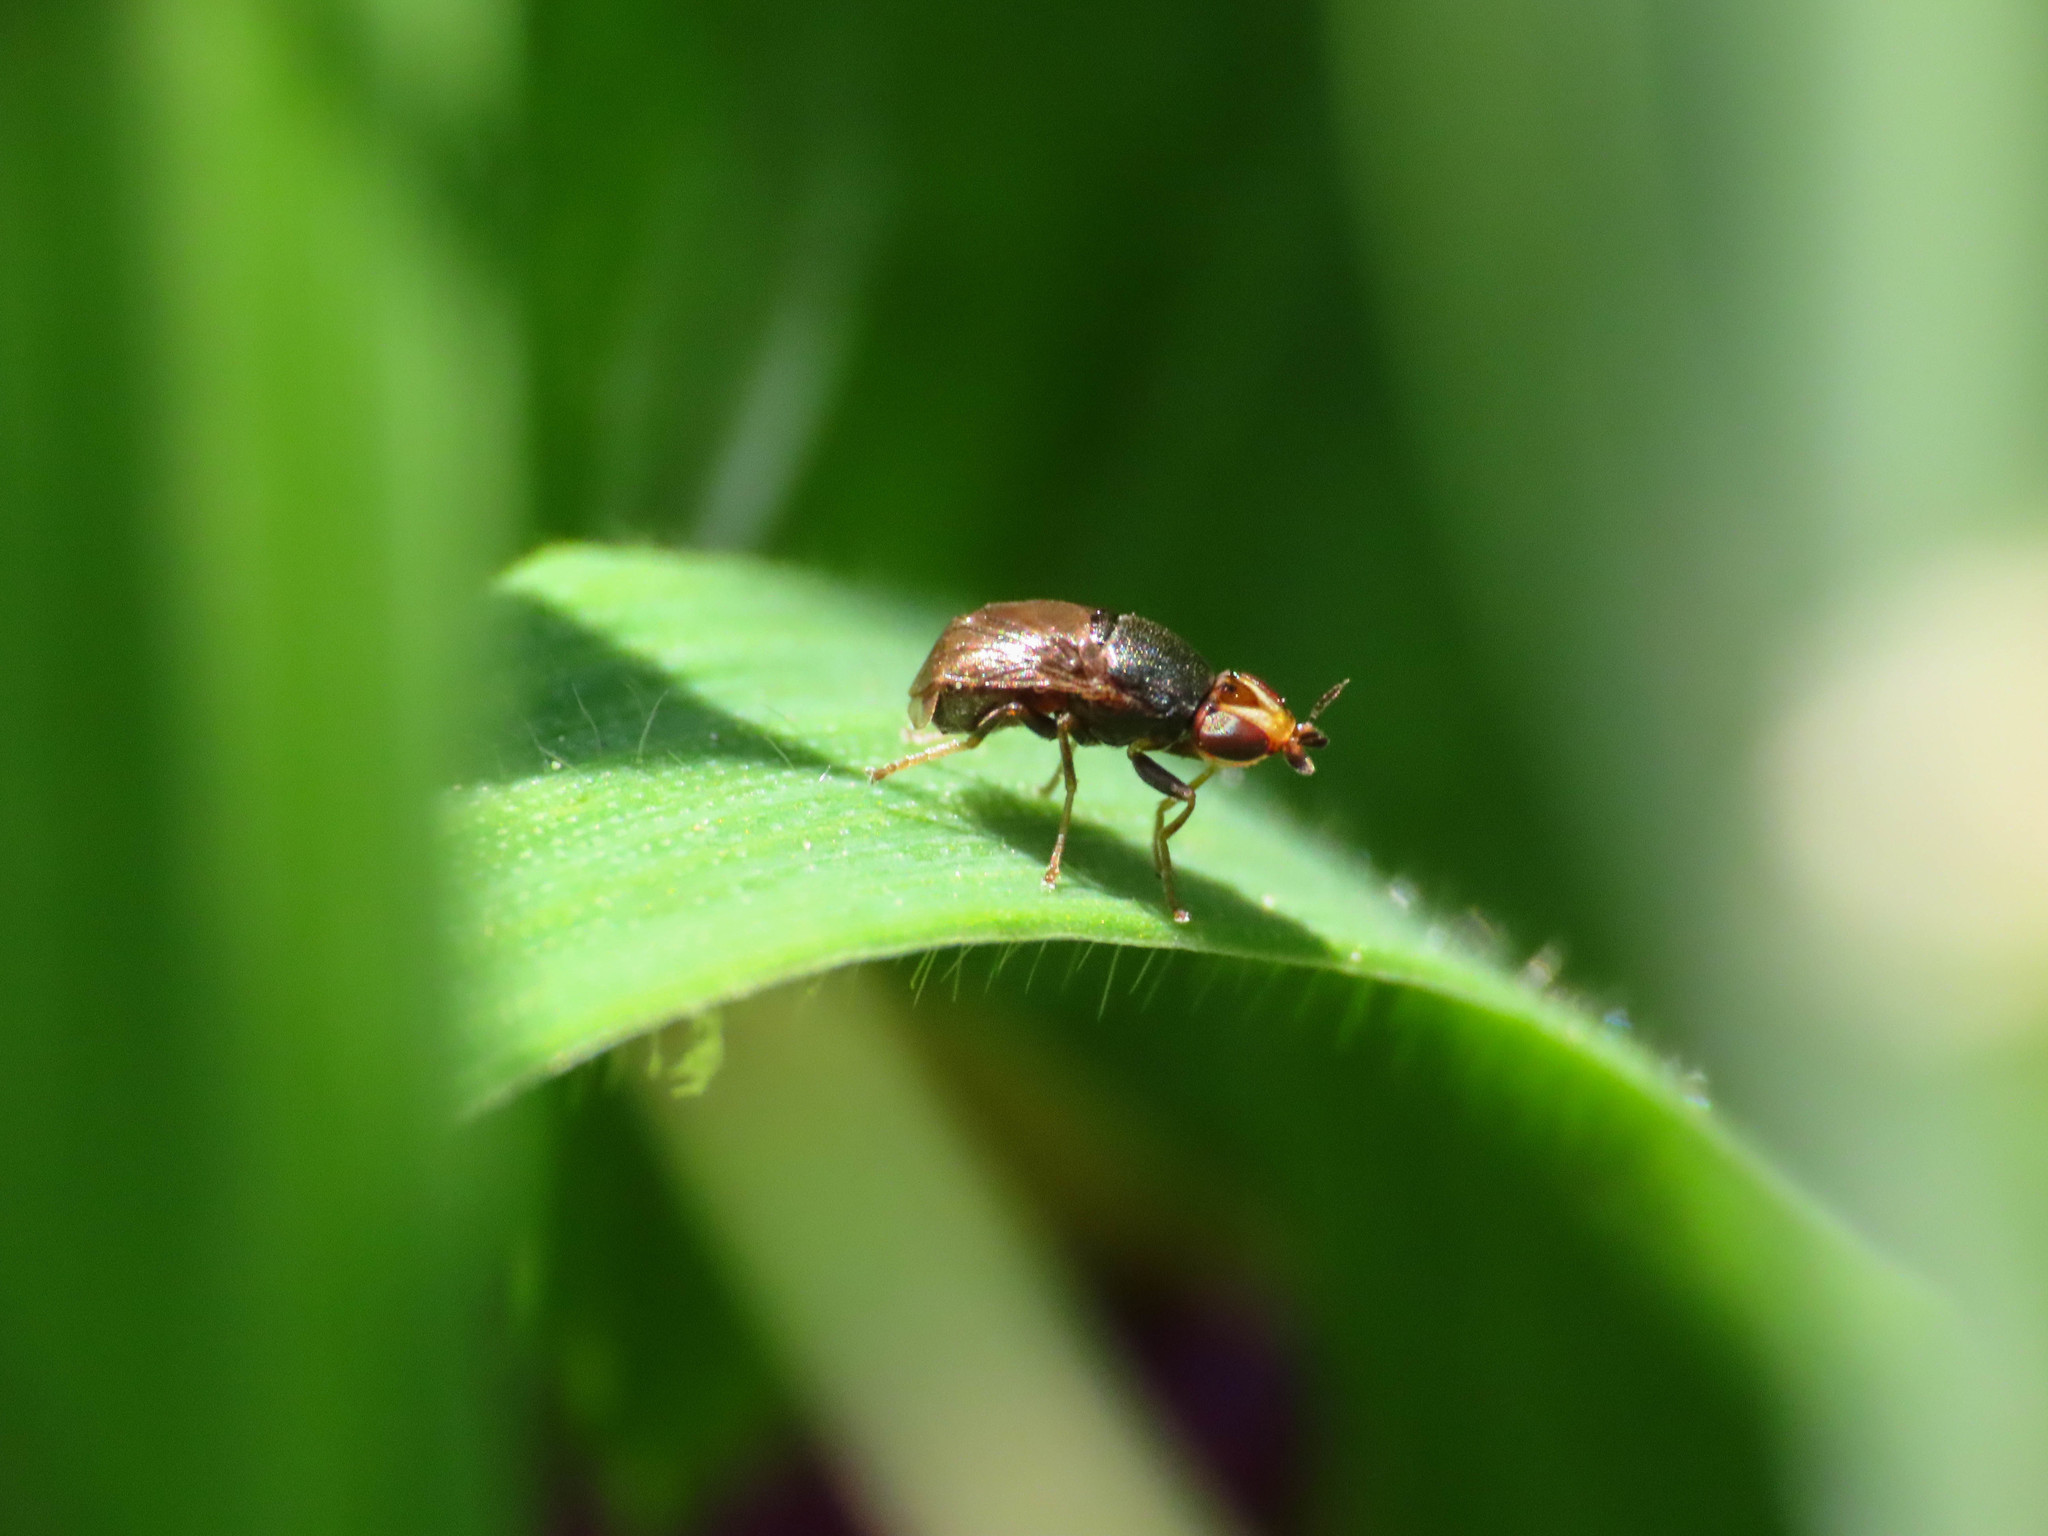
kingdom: Animalia
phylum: Arthropoda
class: Insecta
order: Diptera
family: Chloropidae
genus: Camarota
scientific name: Camarota curvipennis
